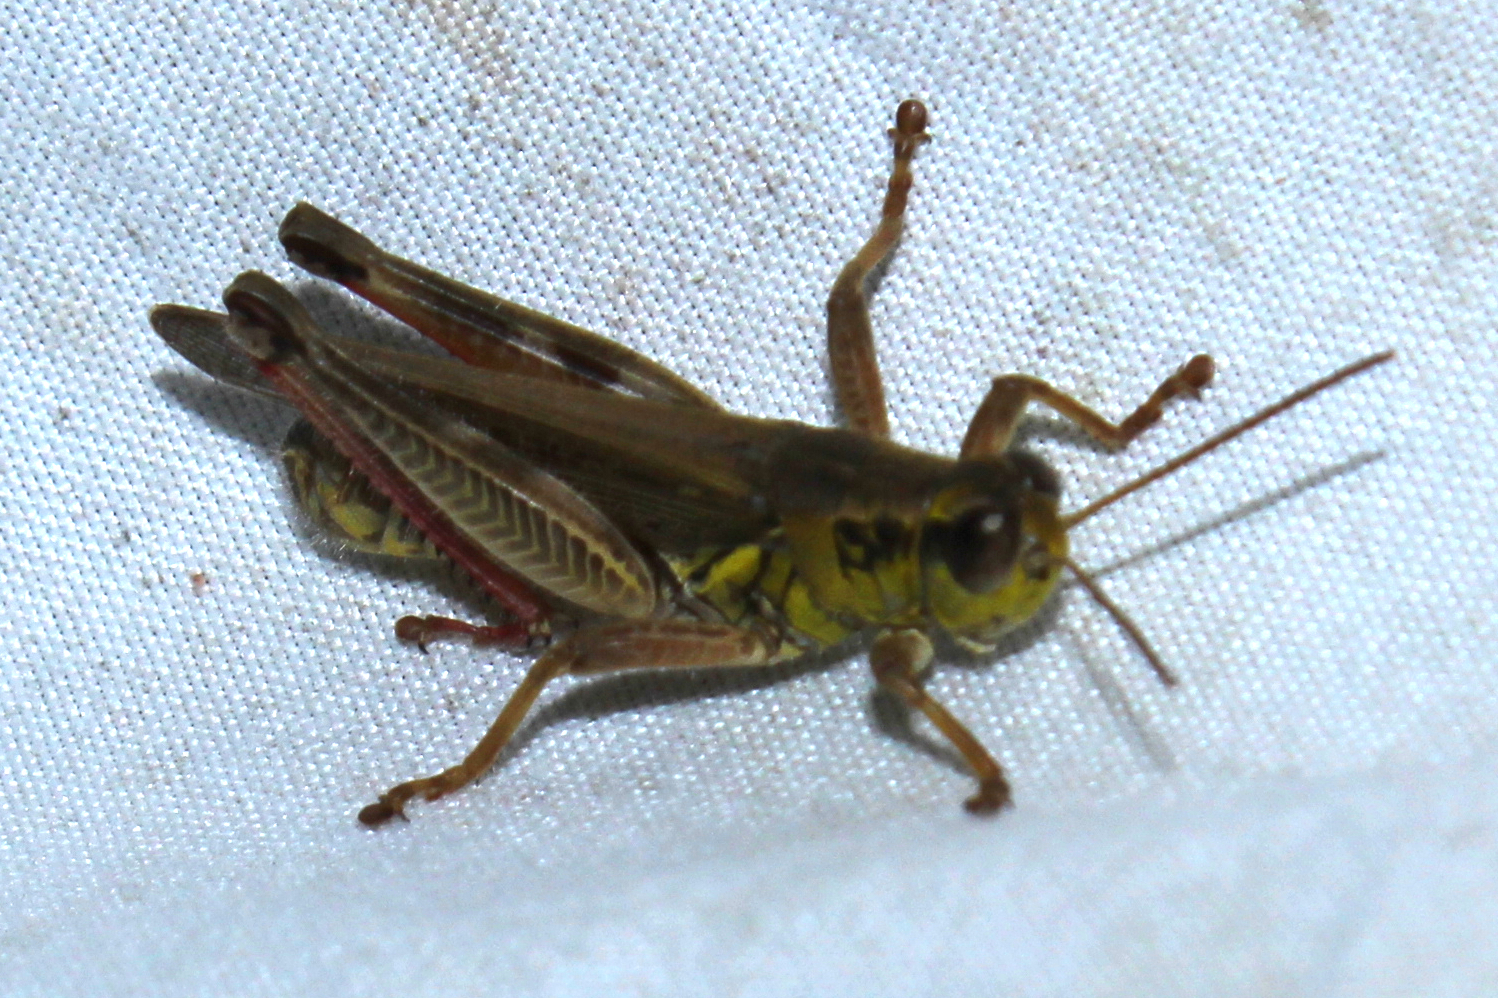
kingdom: Animalia
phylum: Arthropoda
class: Insecta
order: Orthoptera
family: Acrididae
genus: Melanoplus
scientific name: Melanoplus femurrubrum
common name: Red-legged grasshopper
